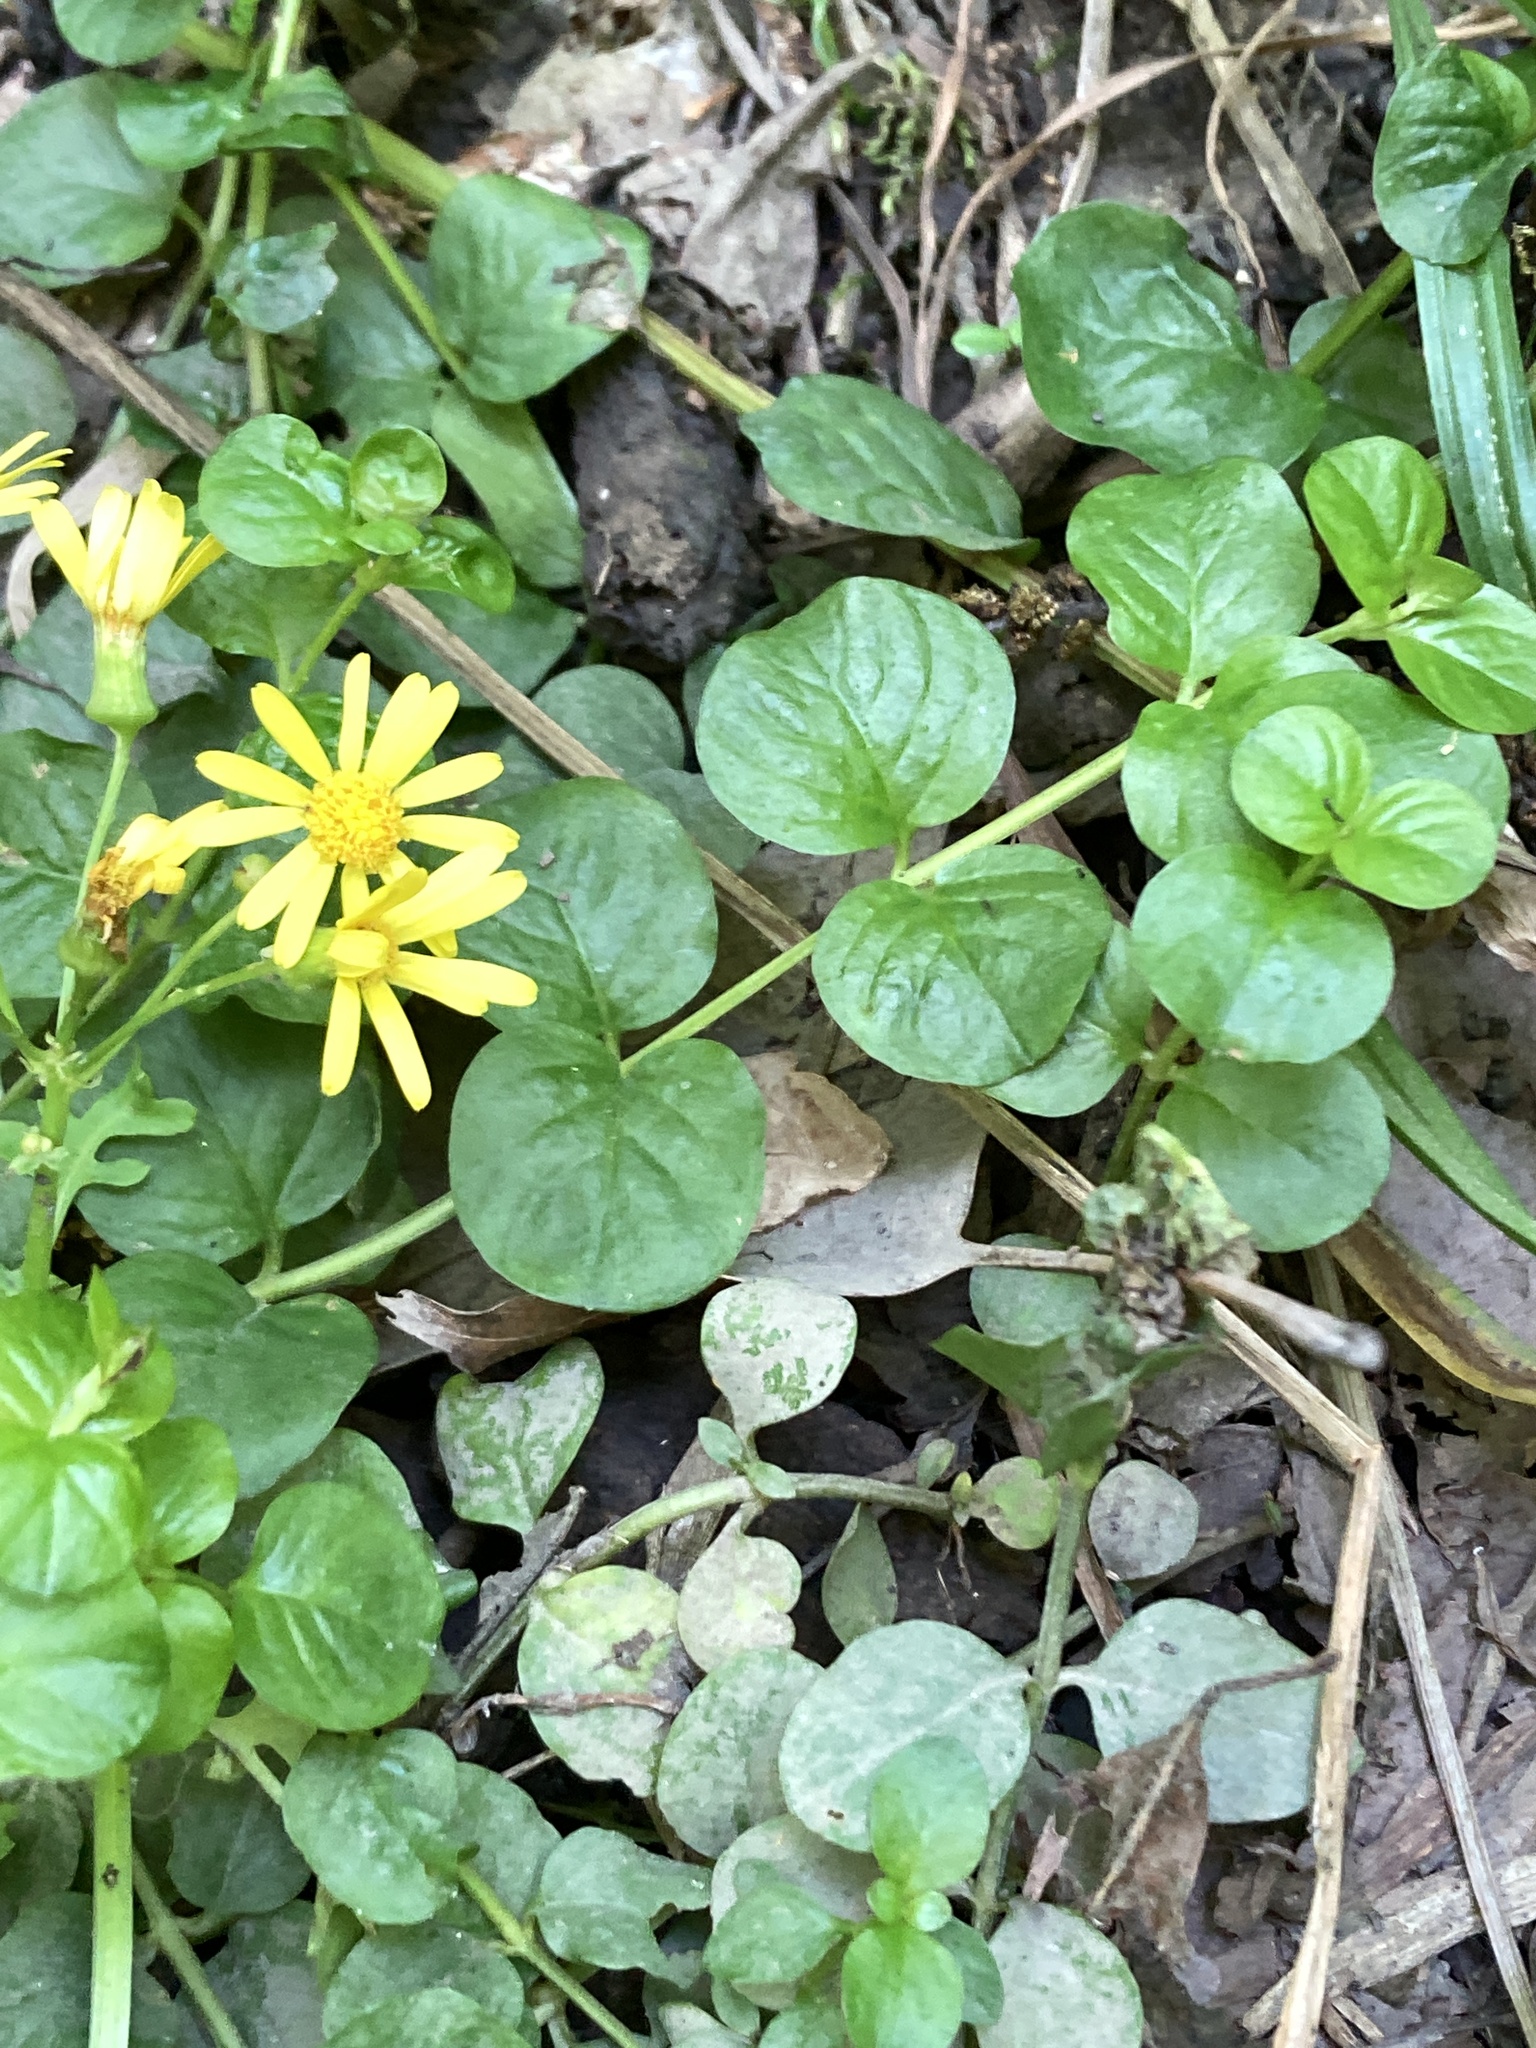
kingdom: Plantae
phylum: Tracheophyta
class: Magnoliopsida
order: Ericales
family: Primulaceae
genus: Lysimachia
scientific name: Lysimachia nummularia
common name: Moneywort
